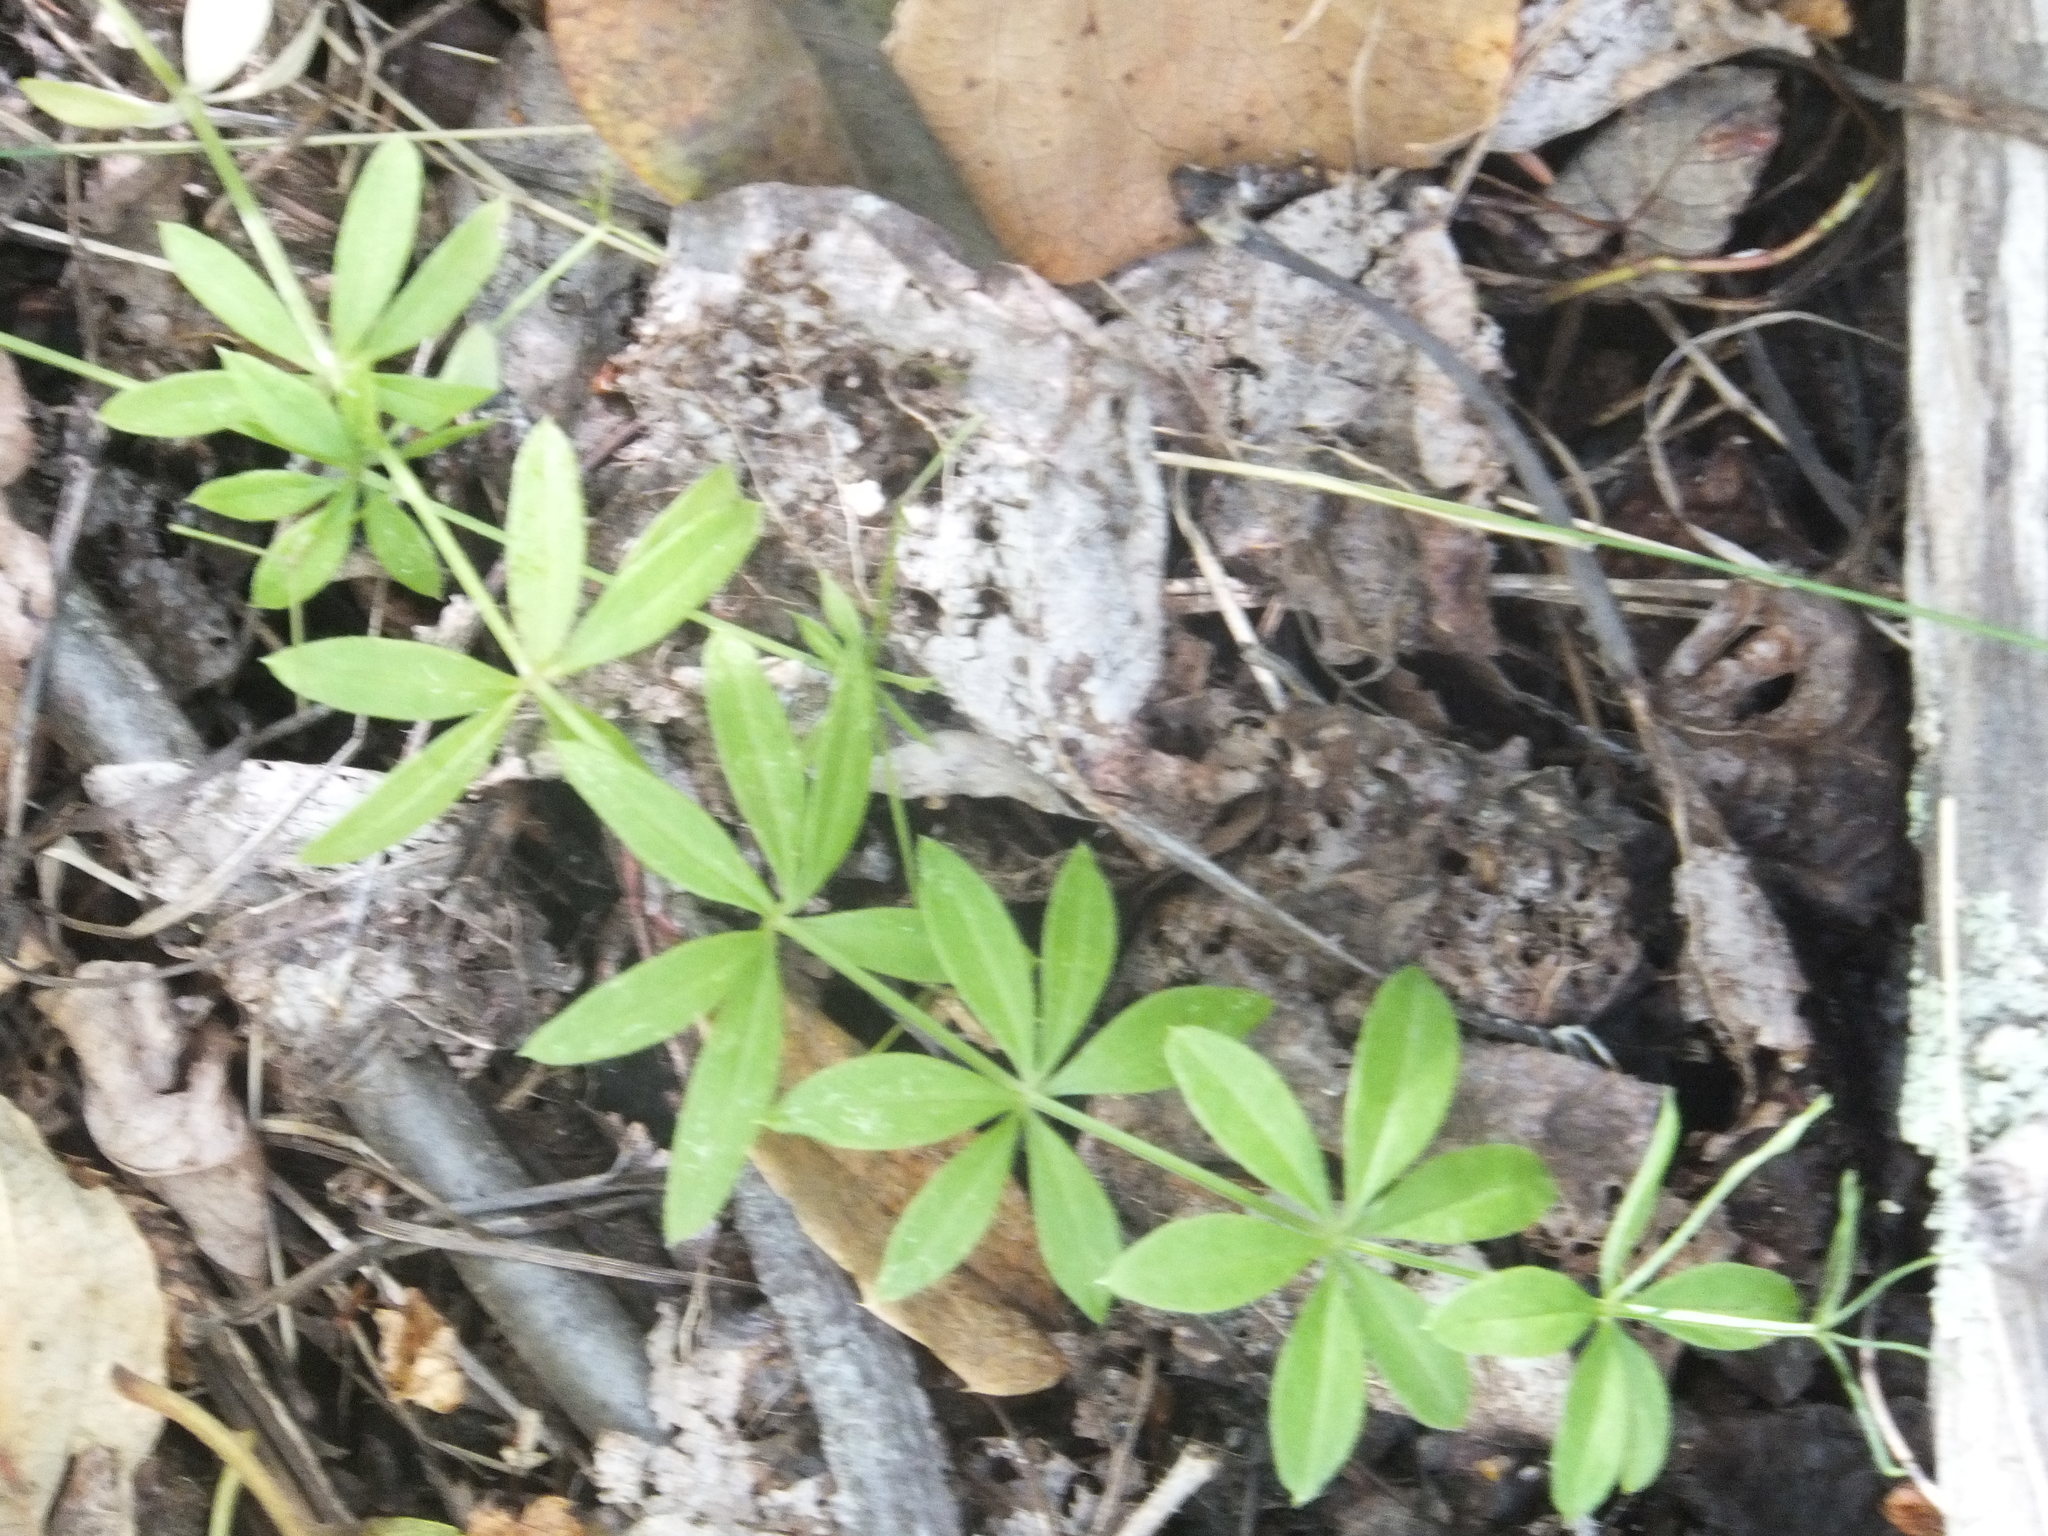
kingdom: Plantae
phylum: Tracheophyta
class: Magnoliopsida
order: Gentianales
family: Rubiaceae
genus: Galium
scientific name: Galium triflorum
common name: Fragrant bedstraw
